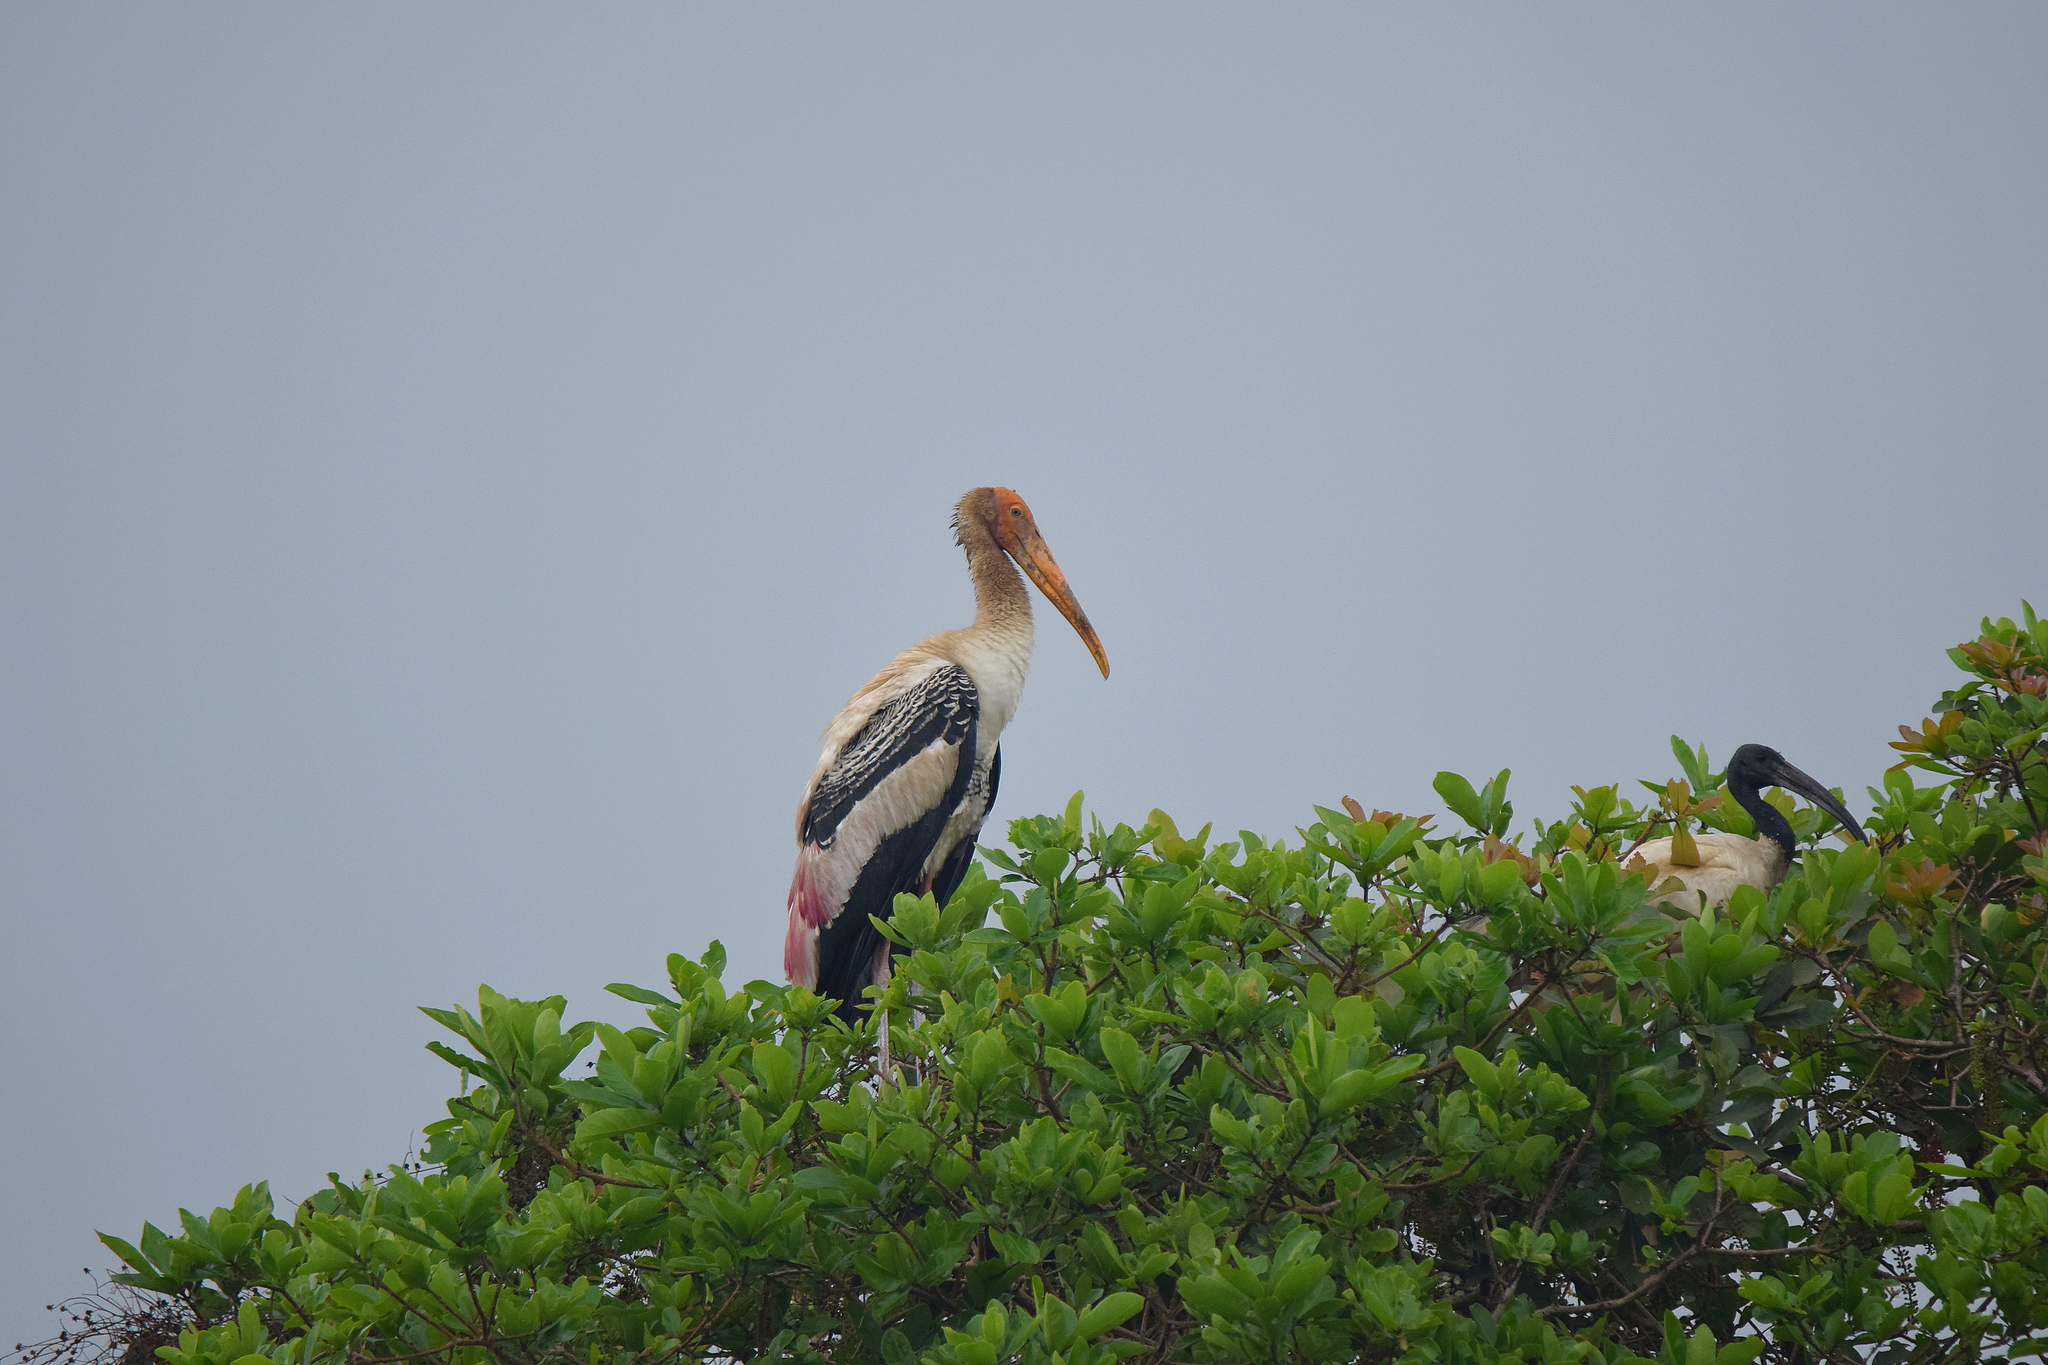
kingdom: Animalia
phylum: Chordata
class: Aves
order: Ciconiiformes
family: Ciconiidae
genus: Mycteria
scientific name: Mycteria leucocephala
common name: Painted stork
